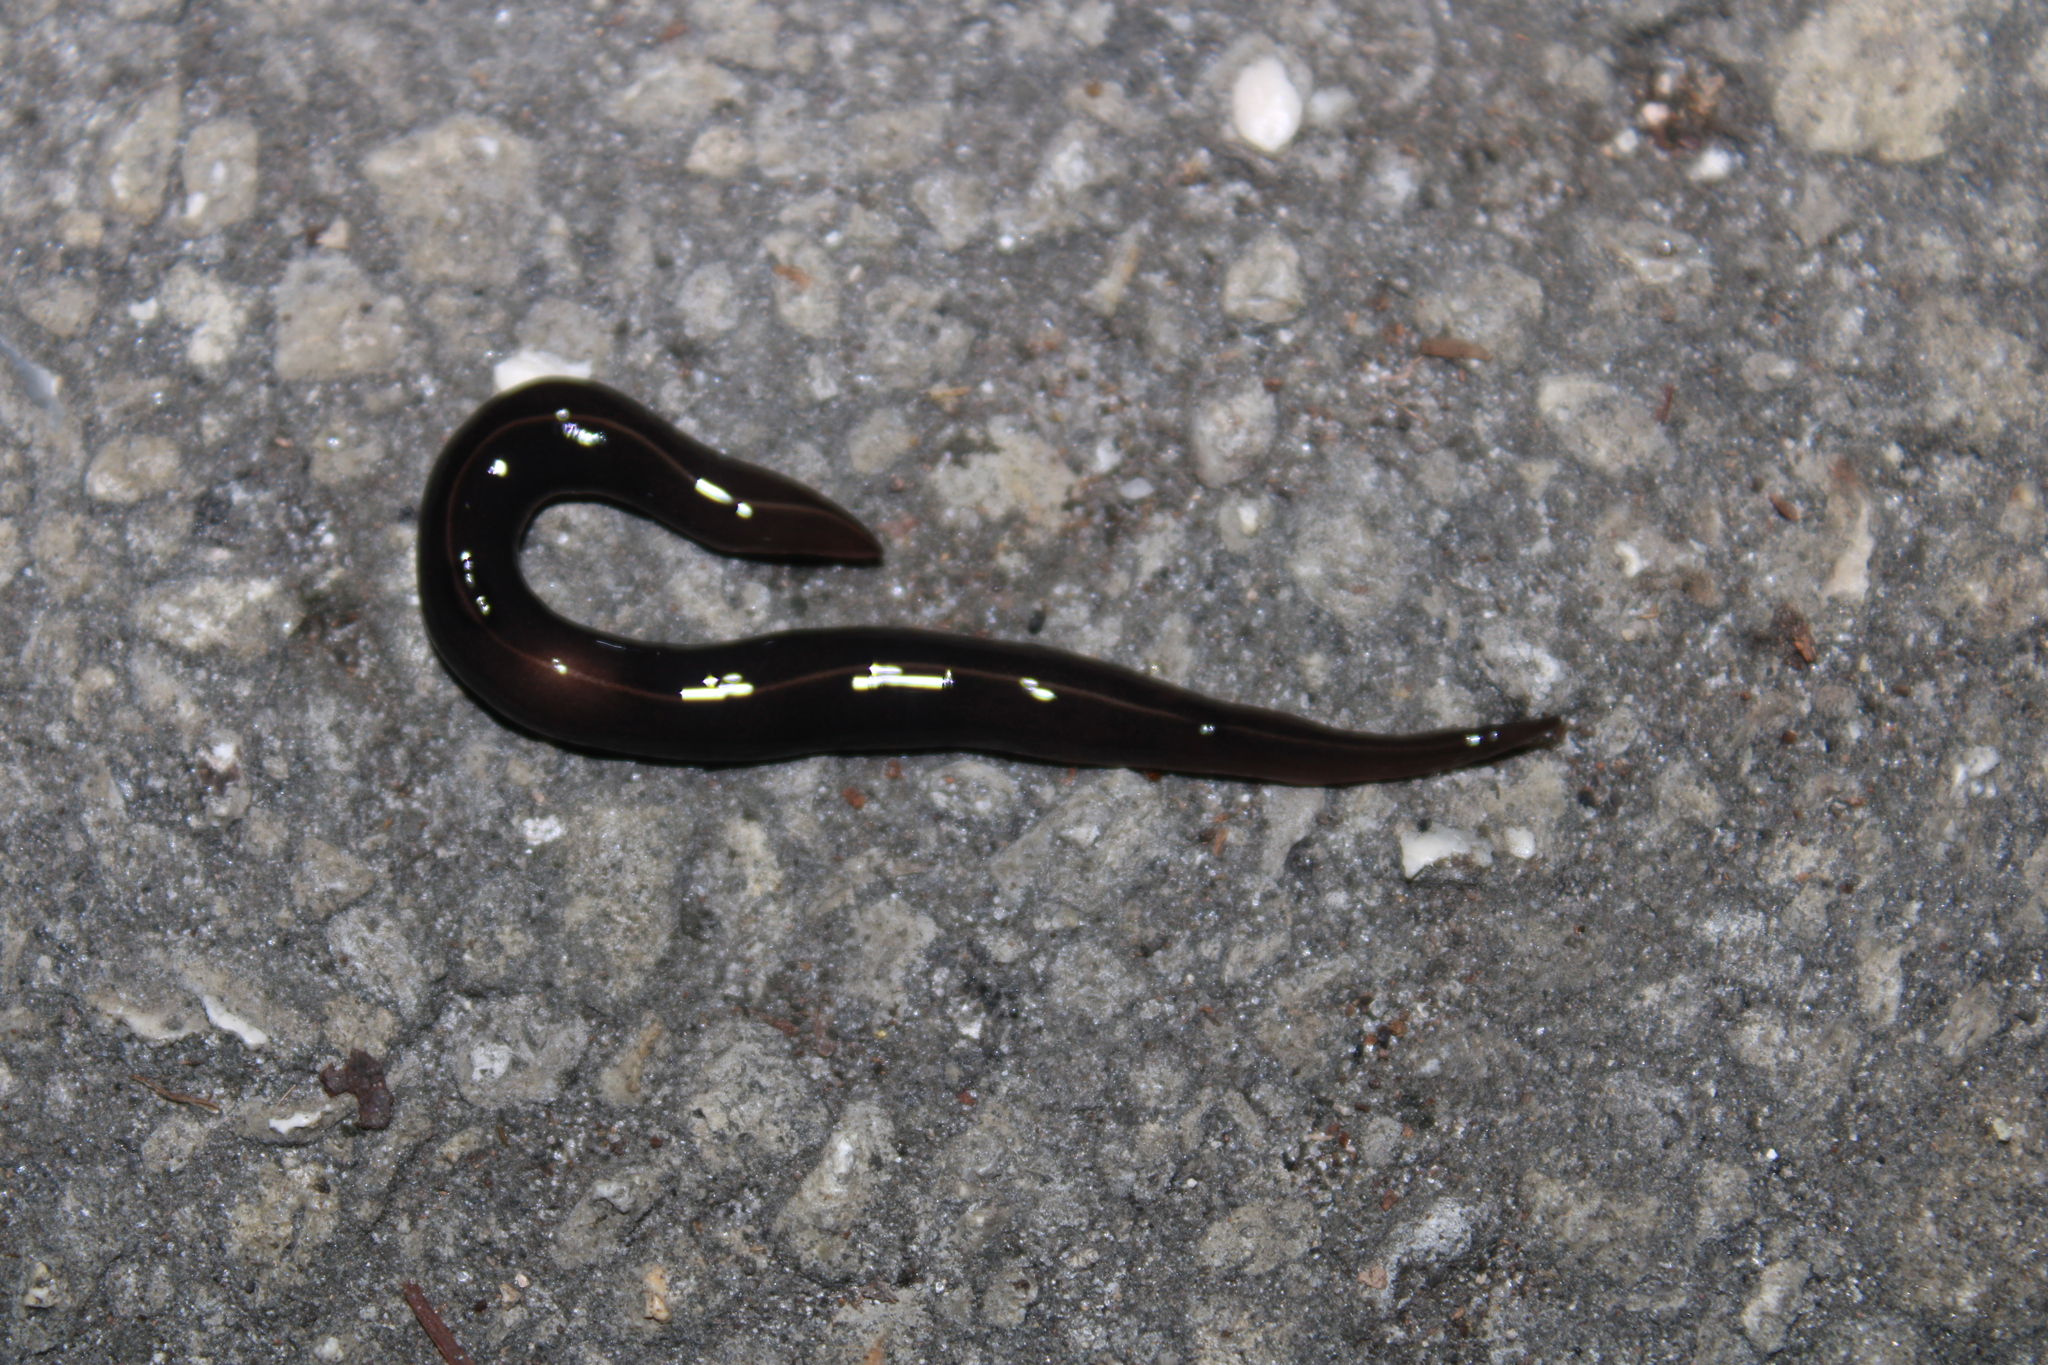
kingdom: Animalia
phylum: Platyhelminthes
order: Tricladida
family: Geoplanidae
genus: Platydemus
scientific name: Platydemus manokwari
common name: New guinea flatworm
